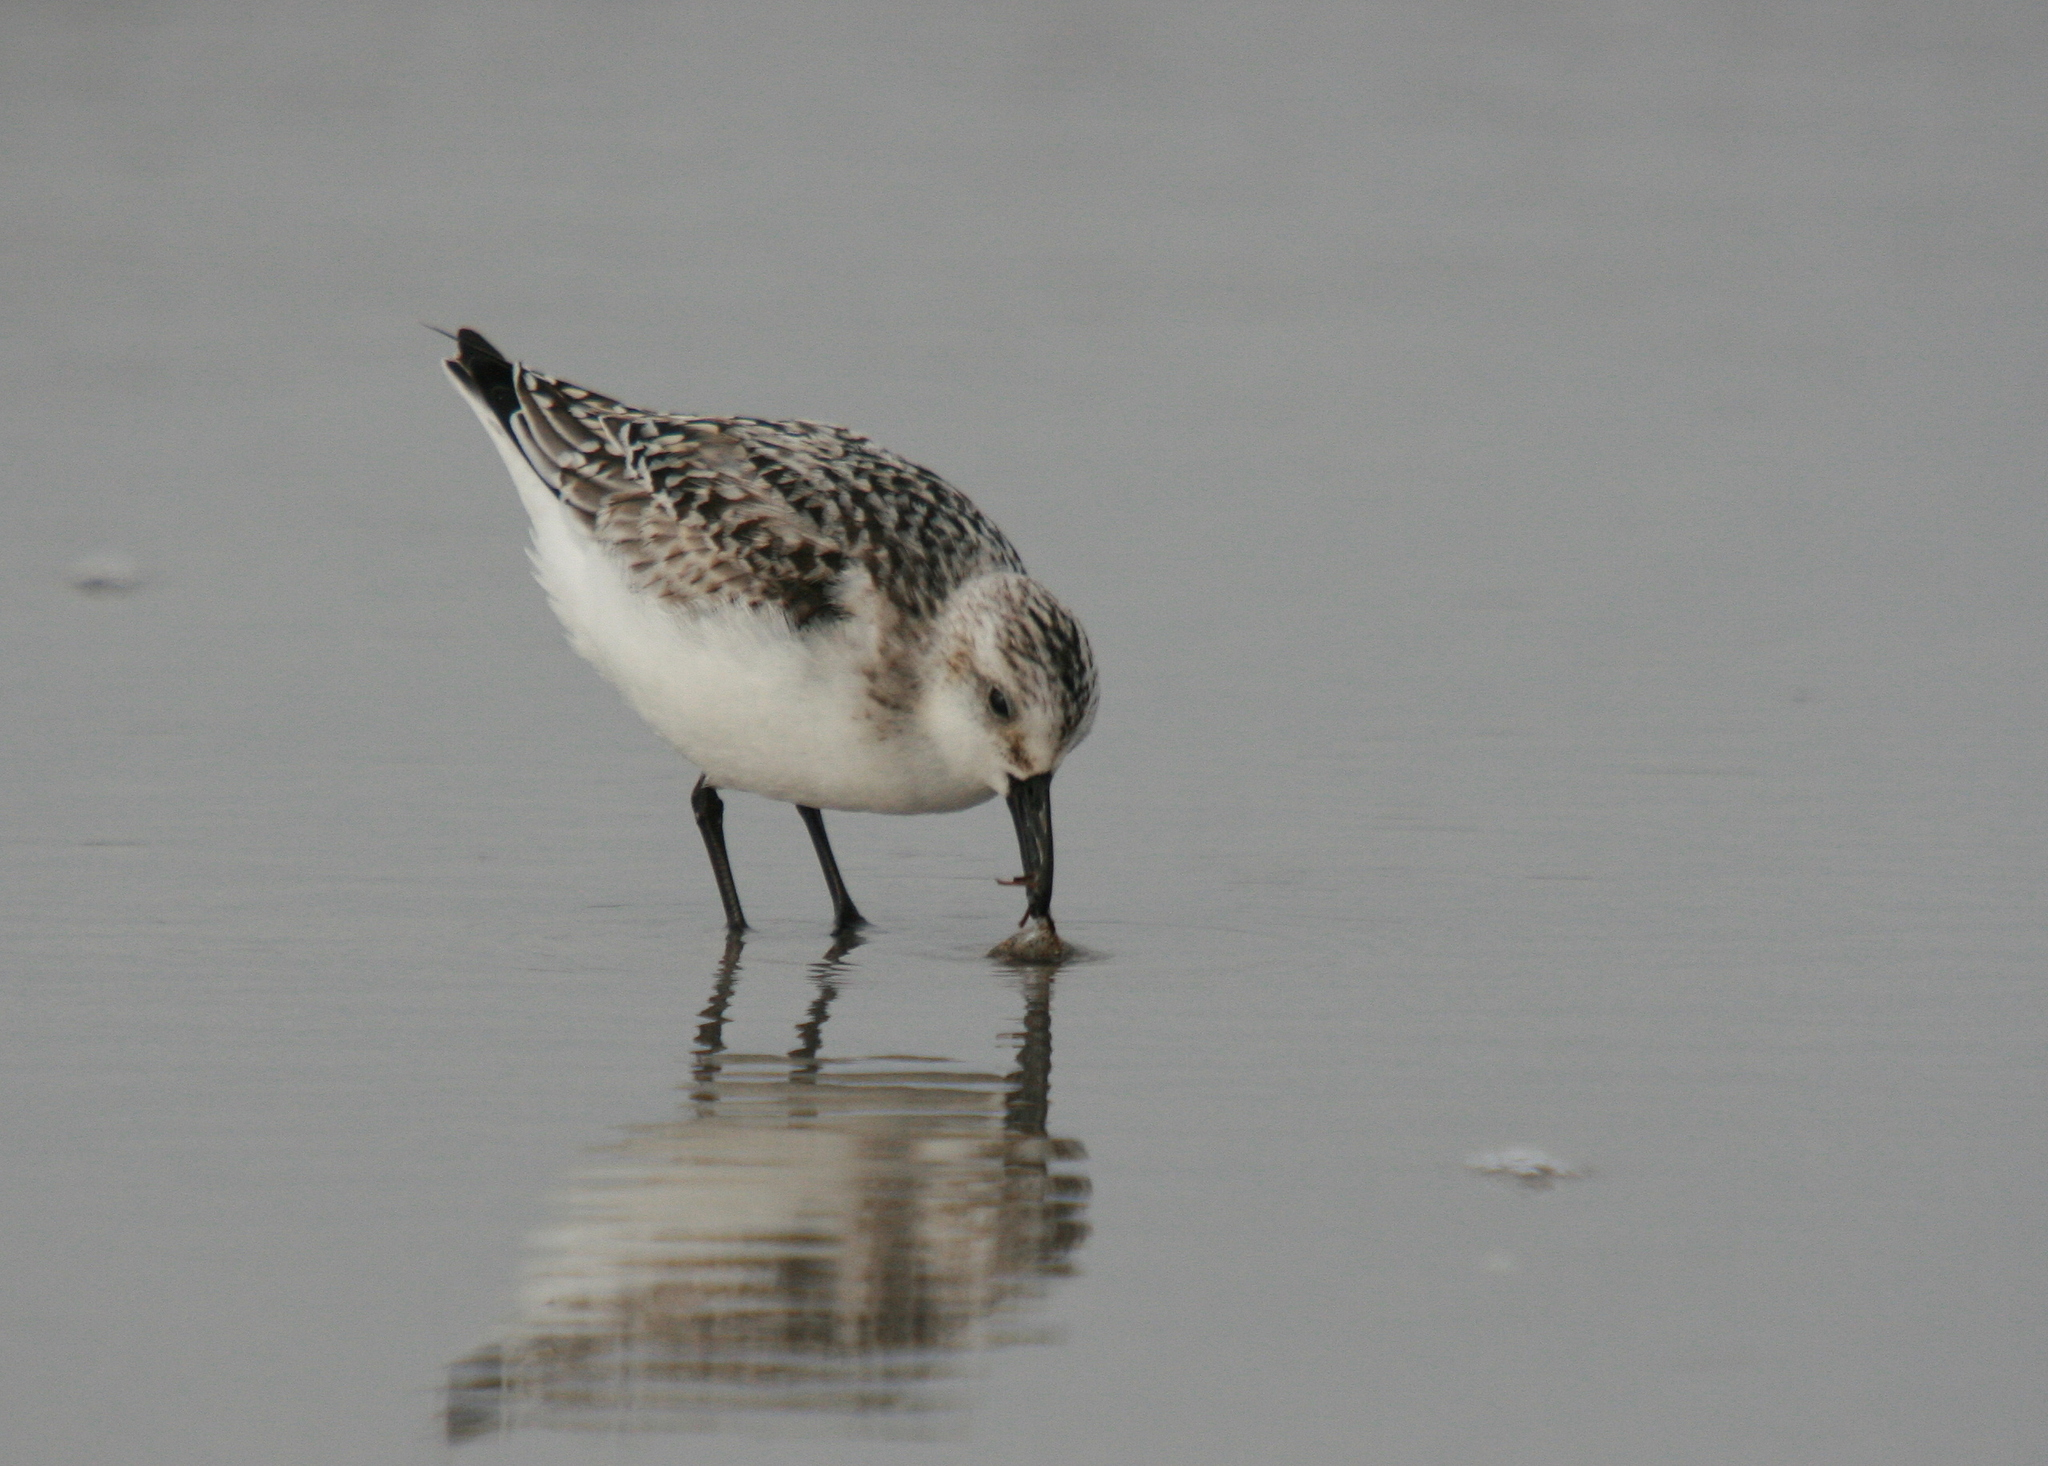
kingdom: Animalia
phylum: Chordata
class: Aves
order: Charadriiformes
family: Scolopacidae
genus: Calidris
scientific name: Calidris alba
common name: Sanderling
